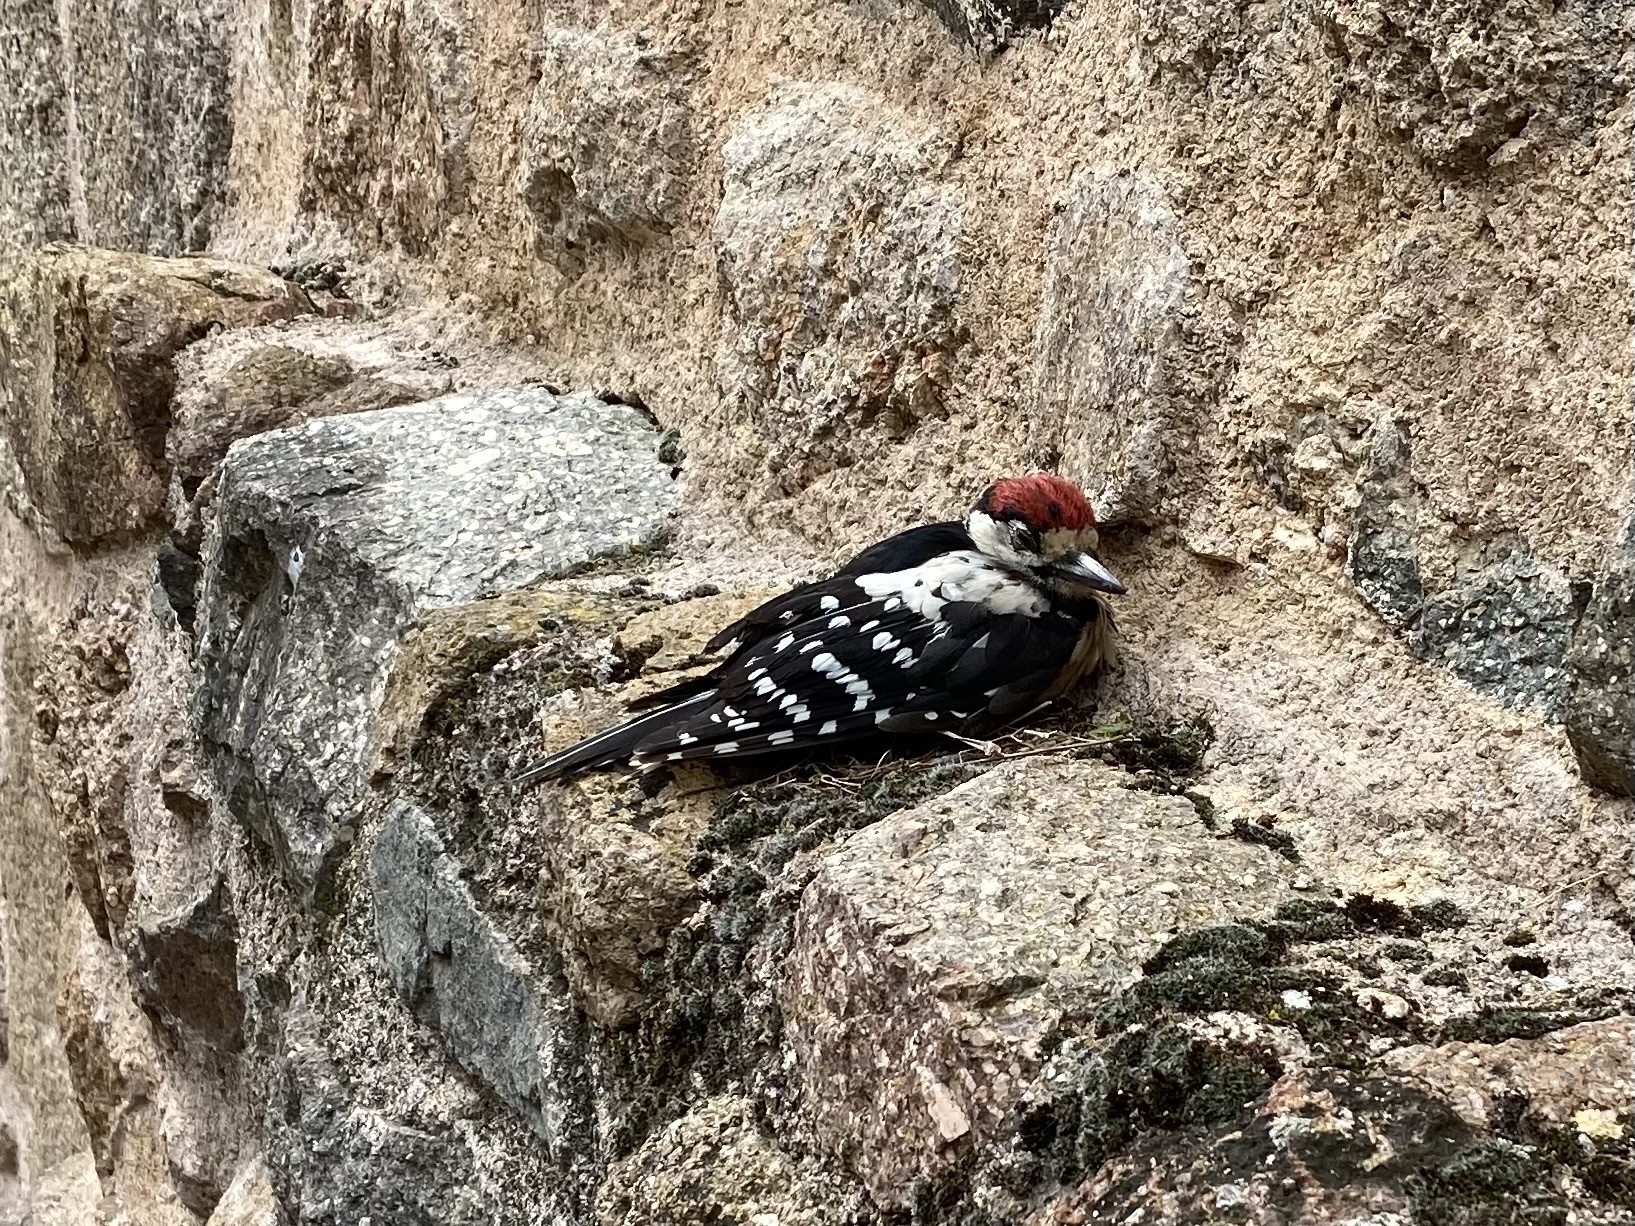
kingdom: Animalia
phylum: Chordata
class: Aves
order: Piciformes
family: Picidae
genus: Dendrocopos
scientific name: Dendrocopos major
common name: Great spotted woodpecker
